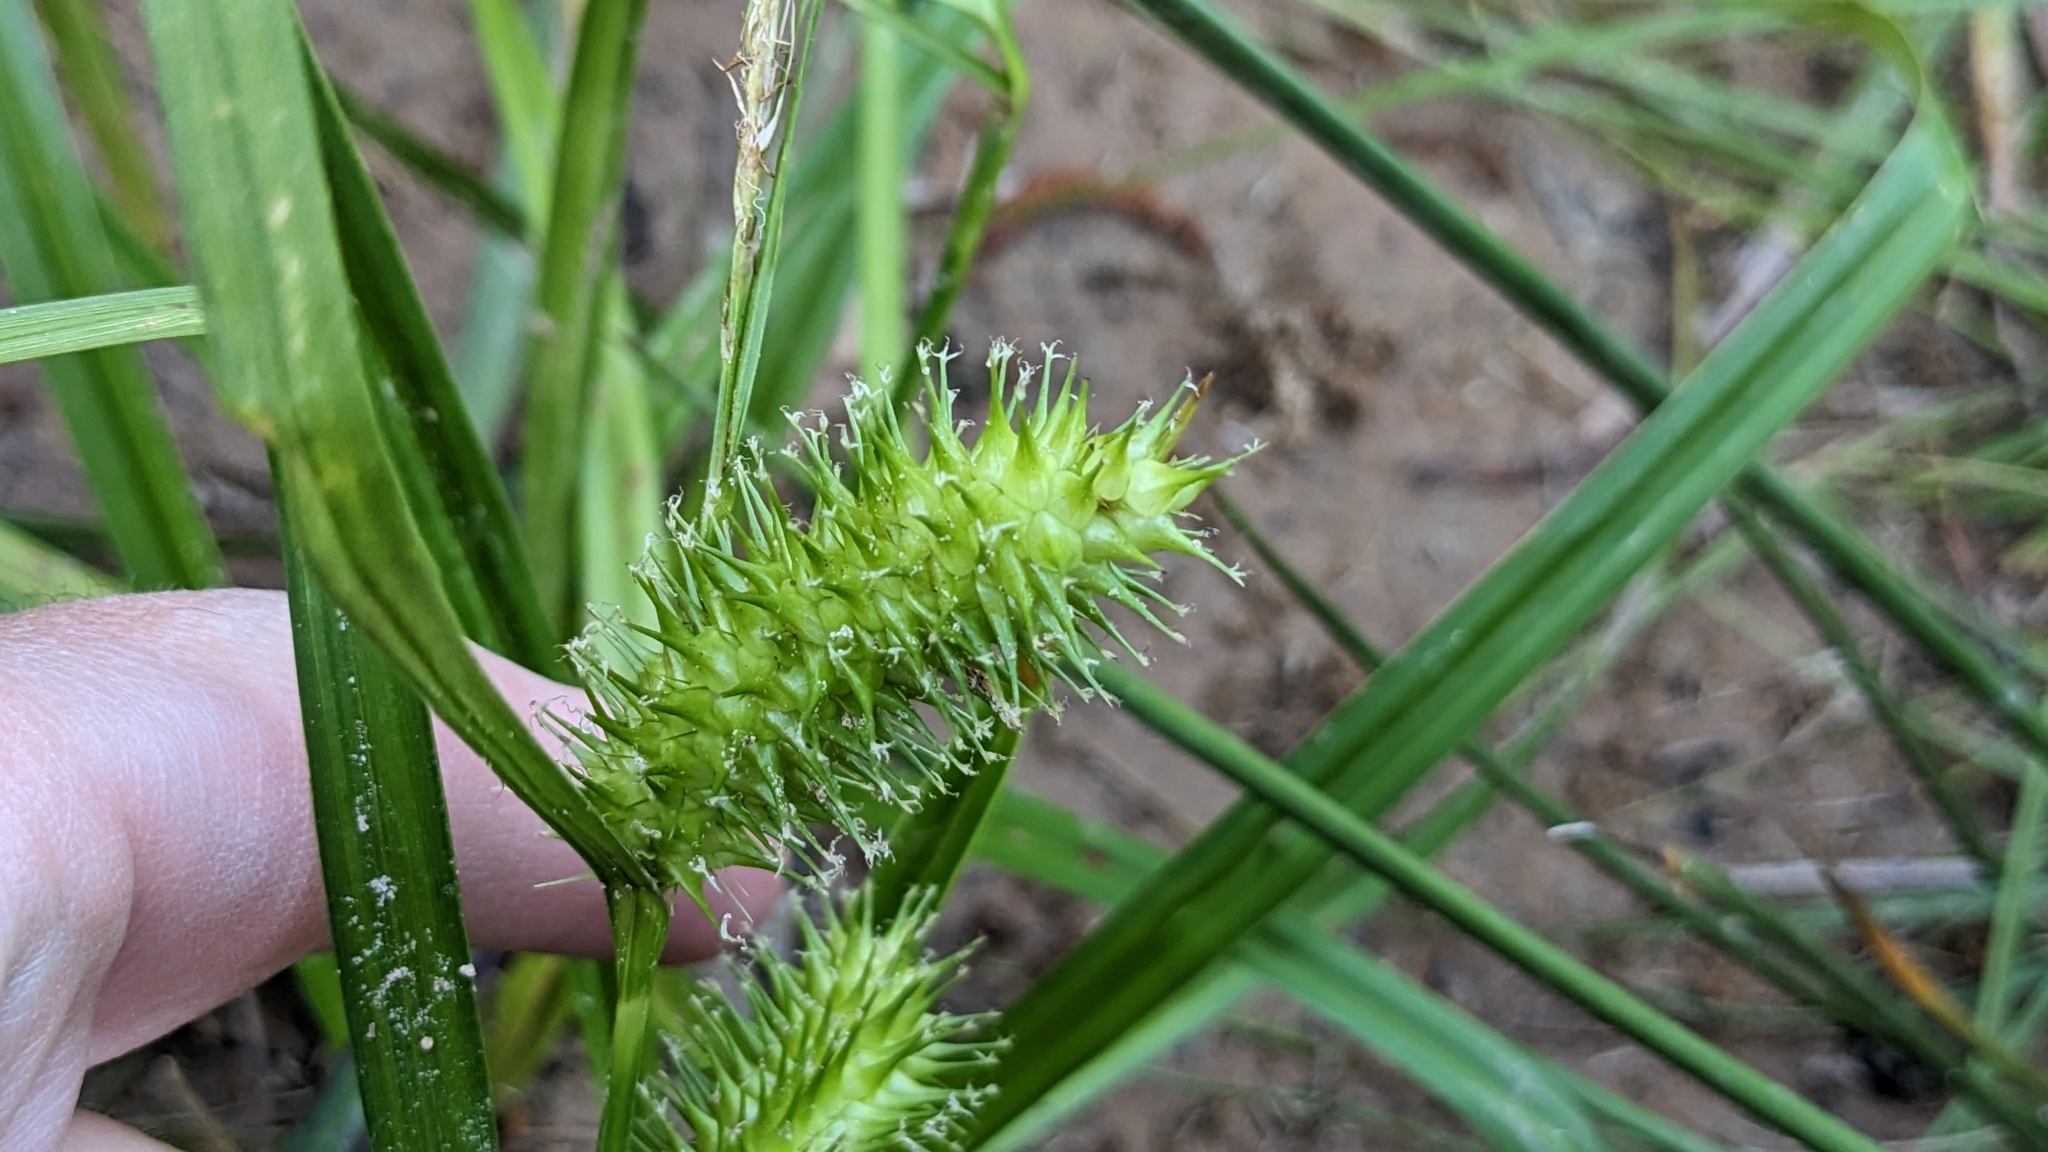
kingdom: Plantae
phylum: Tracheophyta
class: Liliopsida
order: Poales
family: Cyperaceae
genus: Carex
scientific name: Carex lurida
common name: Sallow sedge
